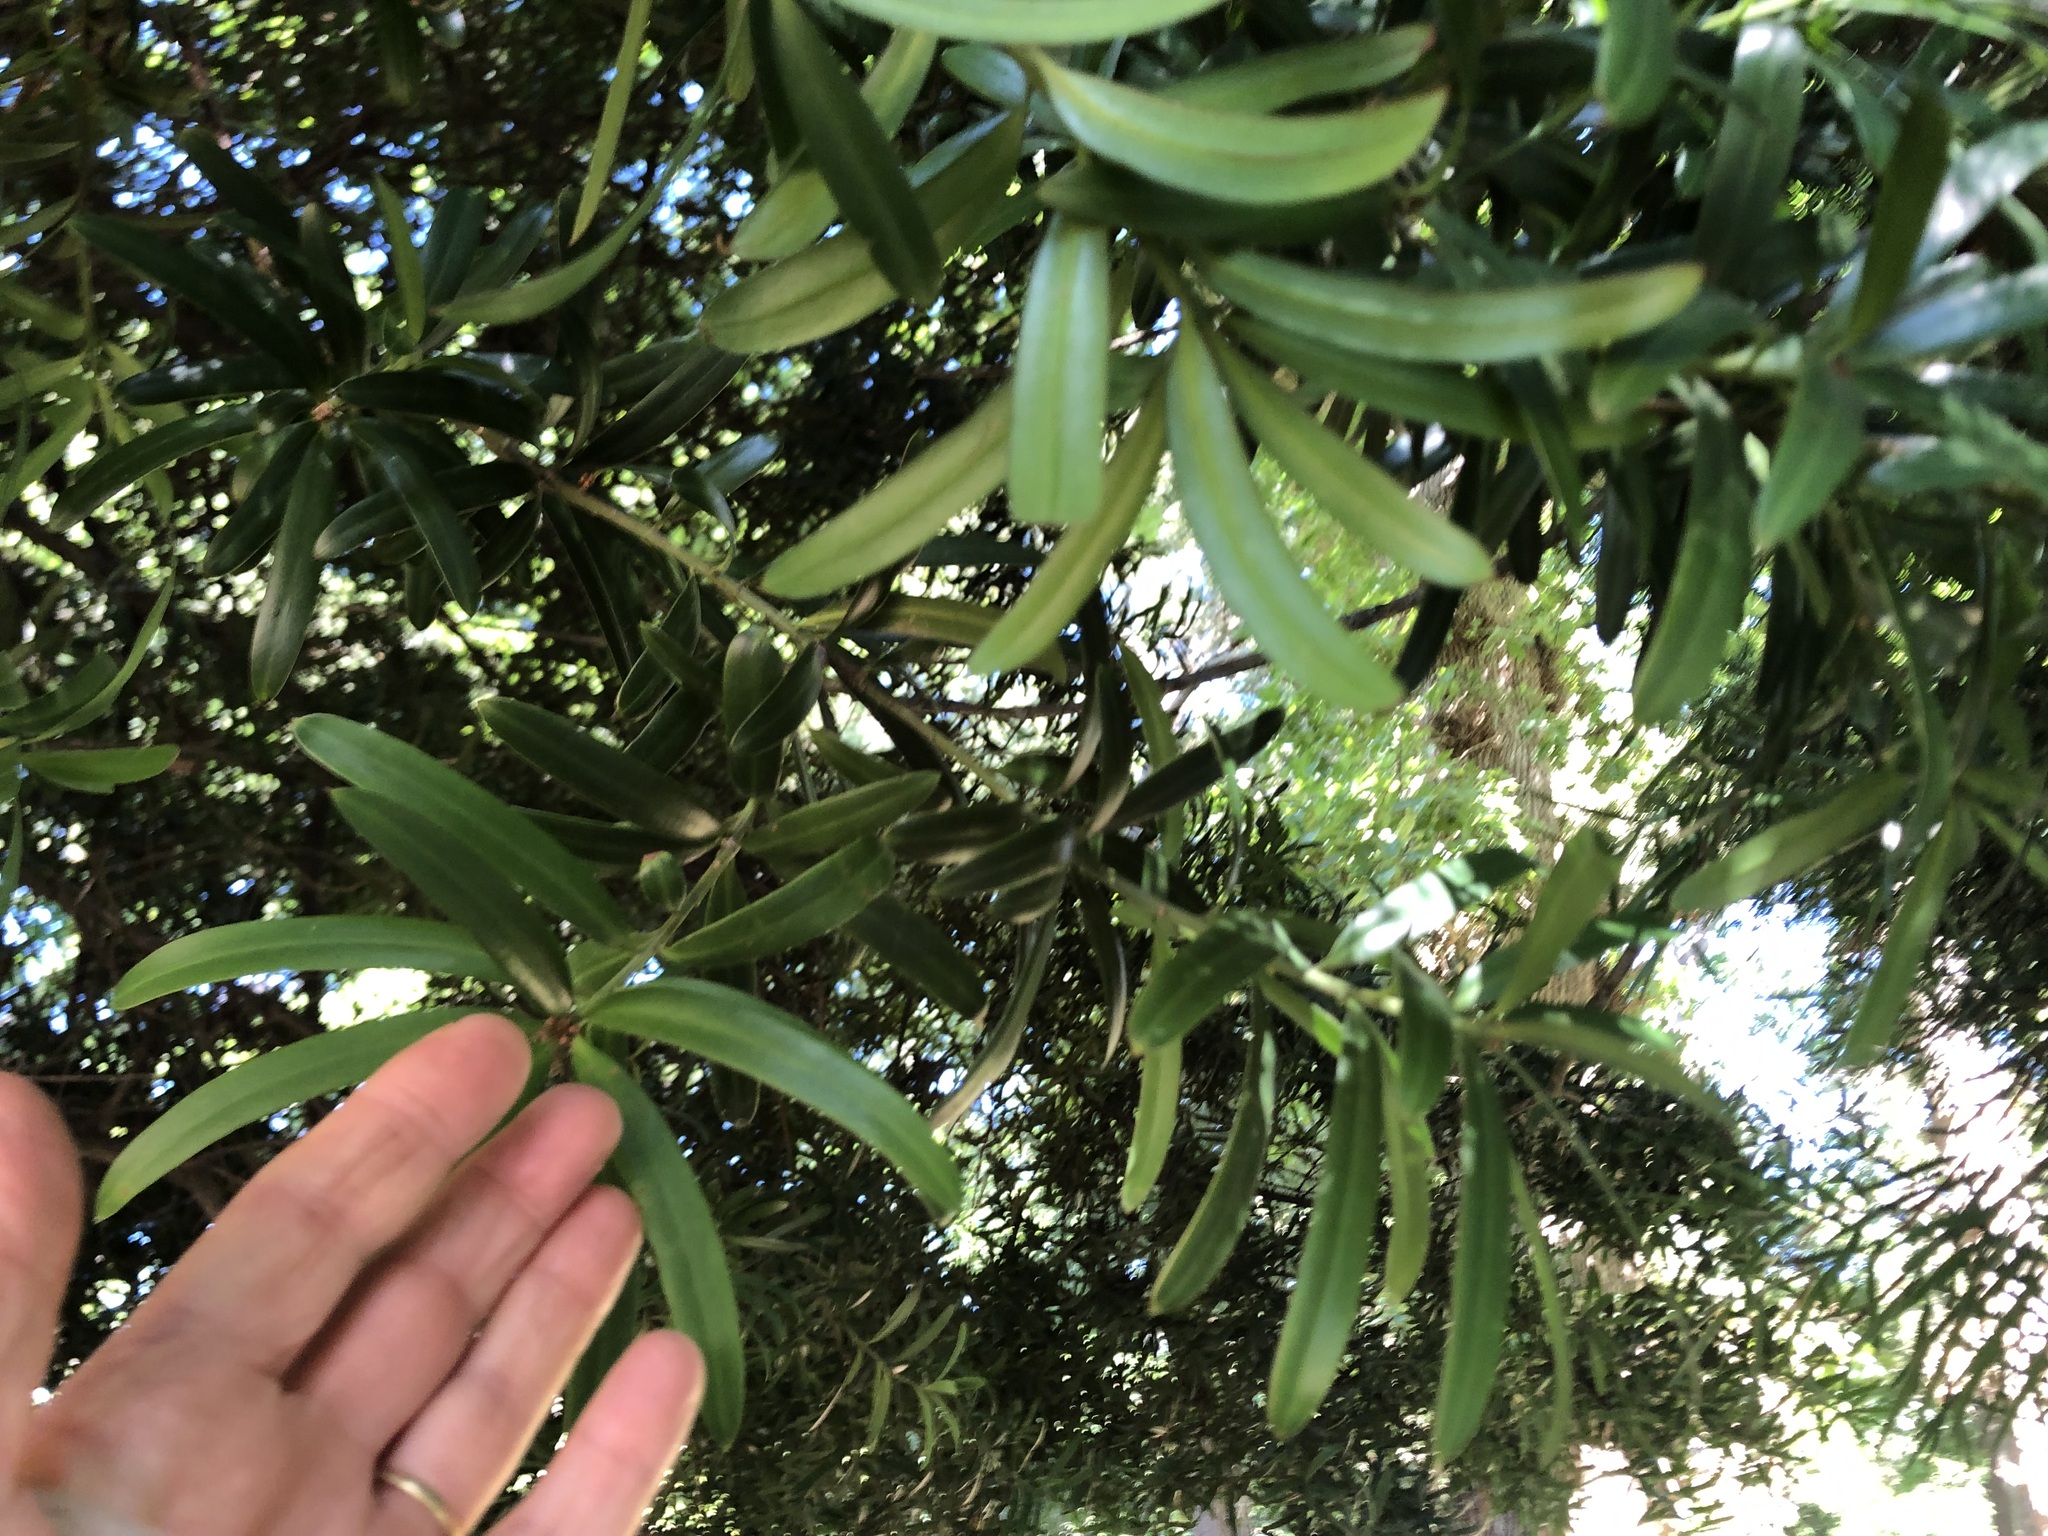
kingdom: Plantae
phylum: Tracheophyta
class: Pinopsida
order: Pinales
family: Podocarpaceae
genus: Podocarpus
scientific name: Podocarpus latifolius
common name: True yellowwood
